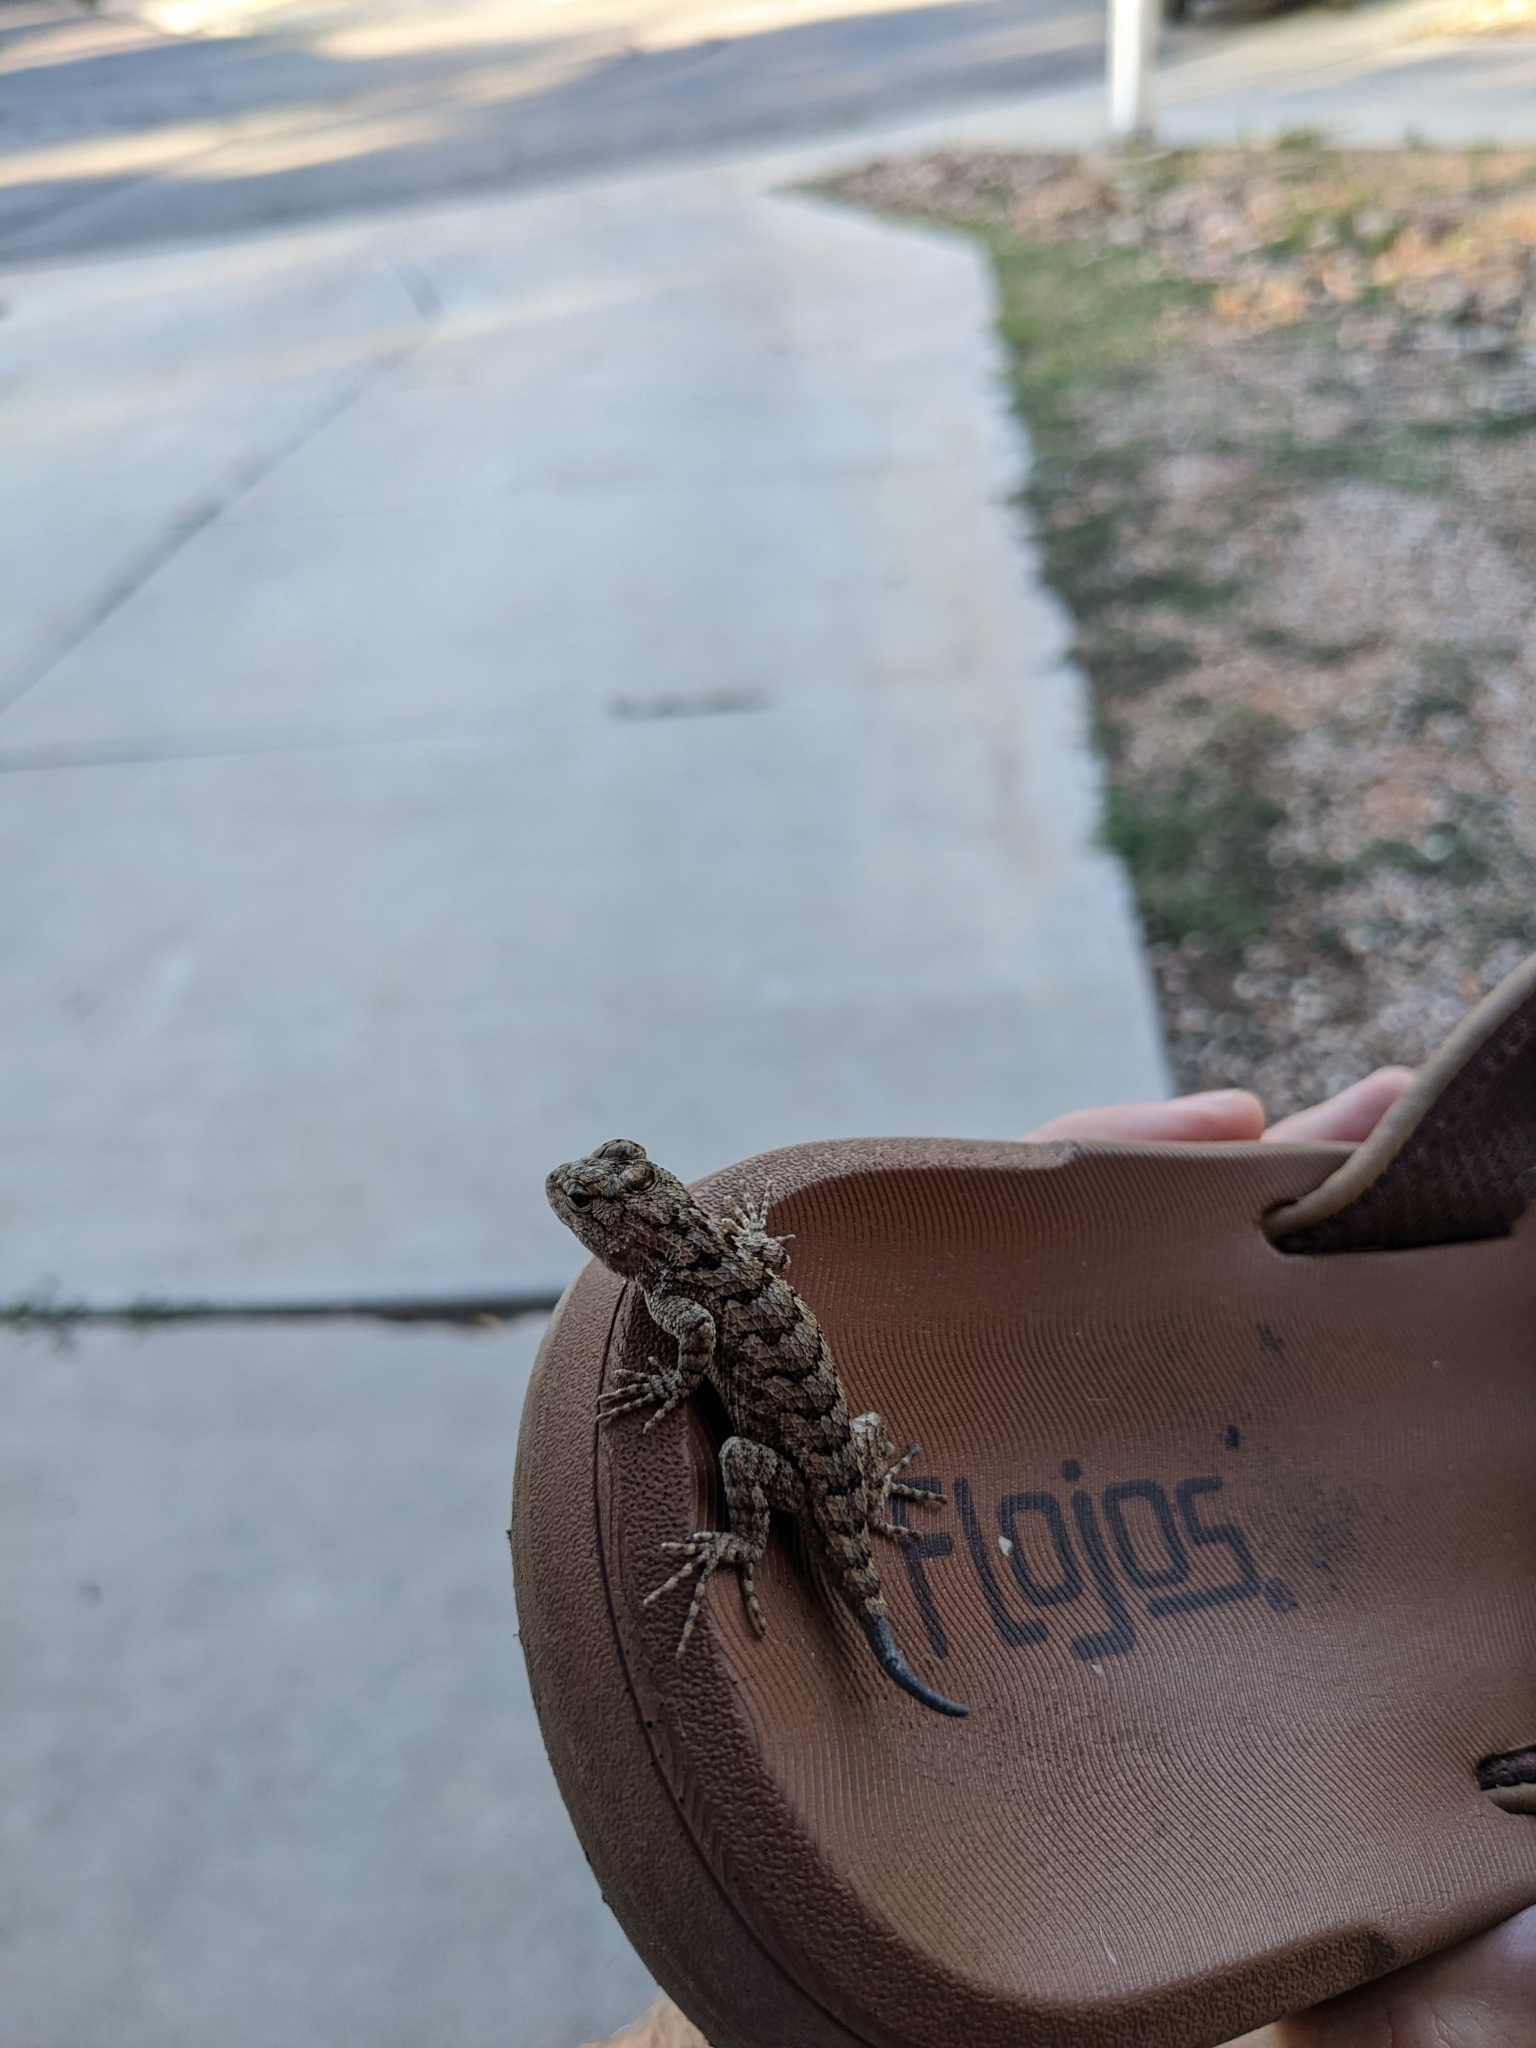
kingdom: Animalia
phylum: Chordata
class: Squamata
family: Phrynosomatidae
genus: Sceloporus
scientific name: Sceloporus clarkii
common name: Clark's spiny lizard
